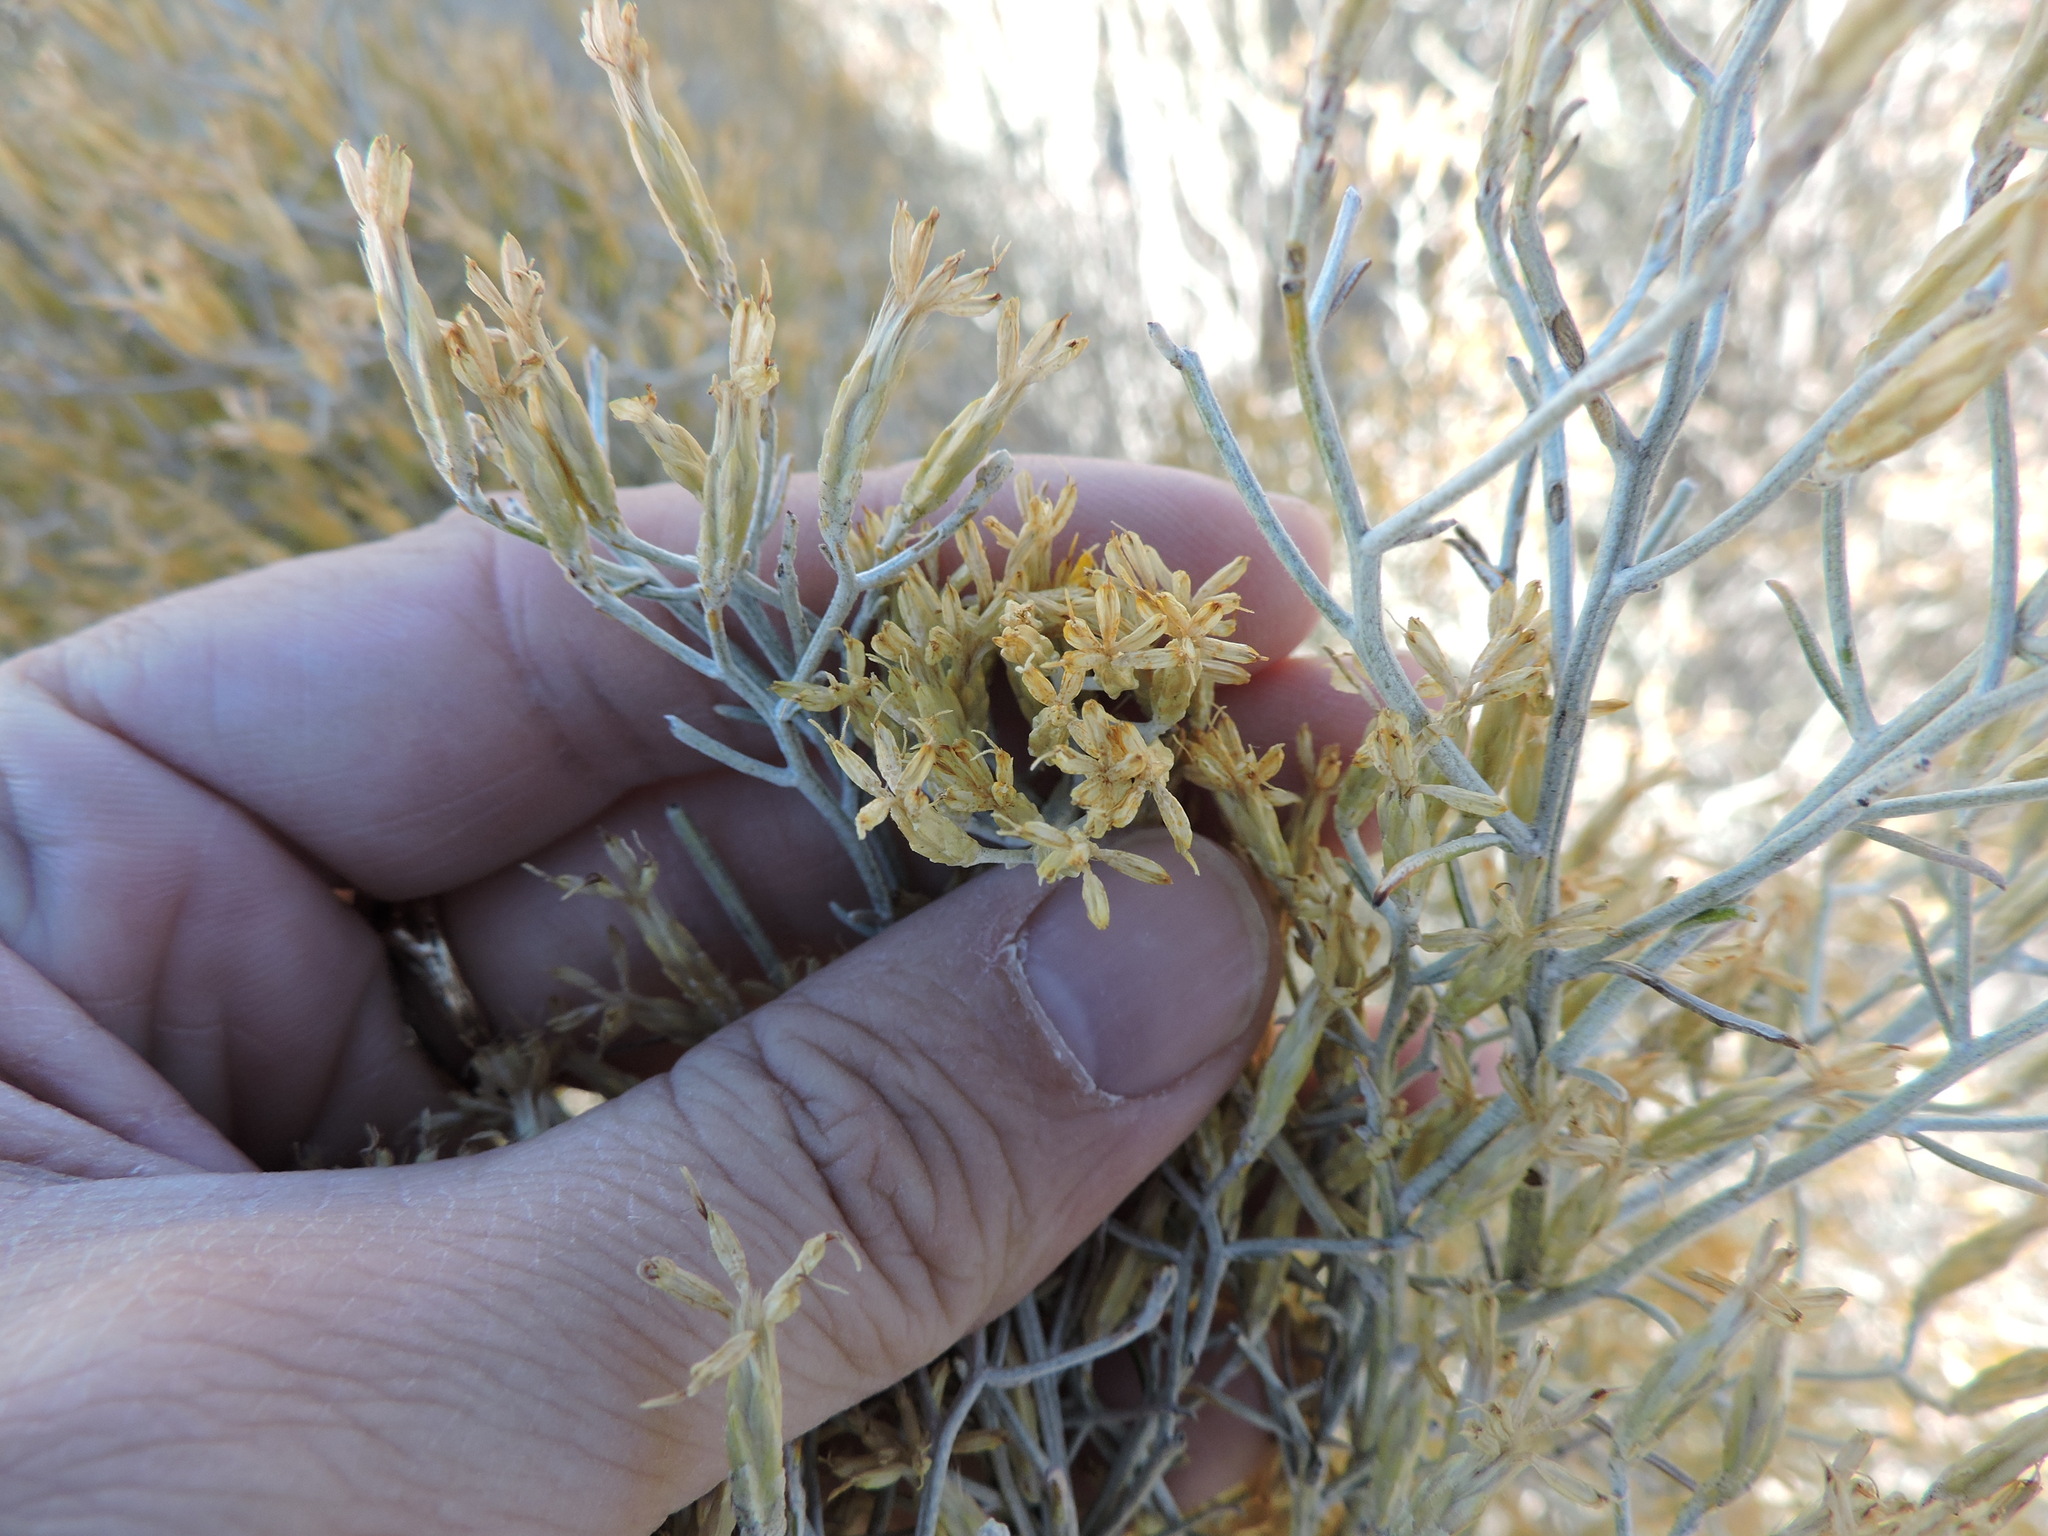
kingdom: Plantae
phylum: Tracheophyta
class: Magnoliopsida
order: Asterales
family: Asteraceae
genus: Ericameria
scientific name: Ericameria nauseosa
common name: Rubber rabbitbrush
